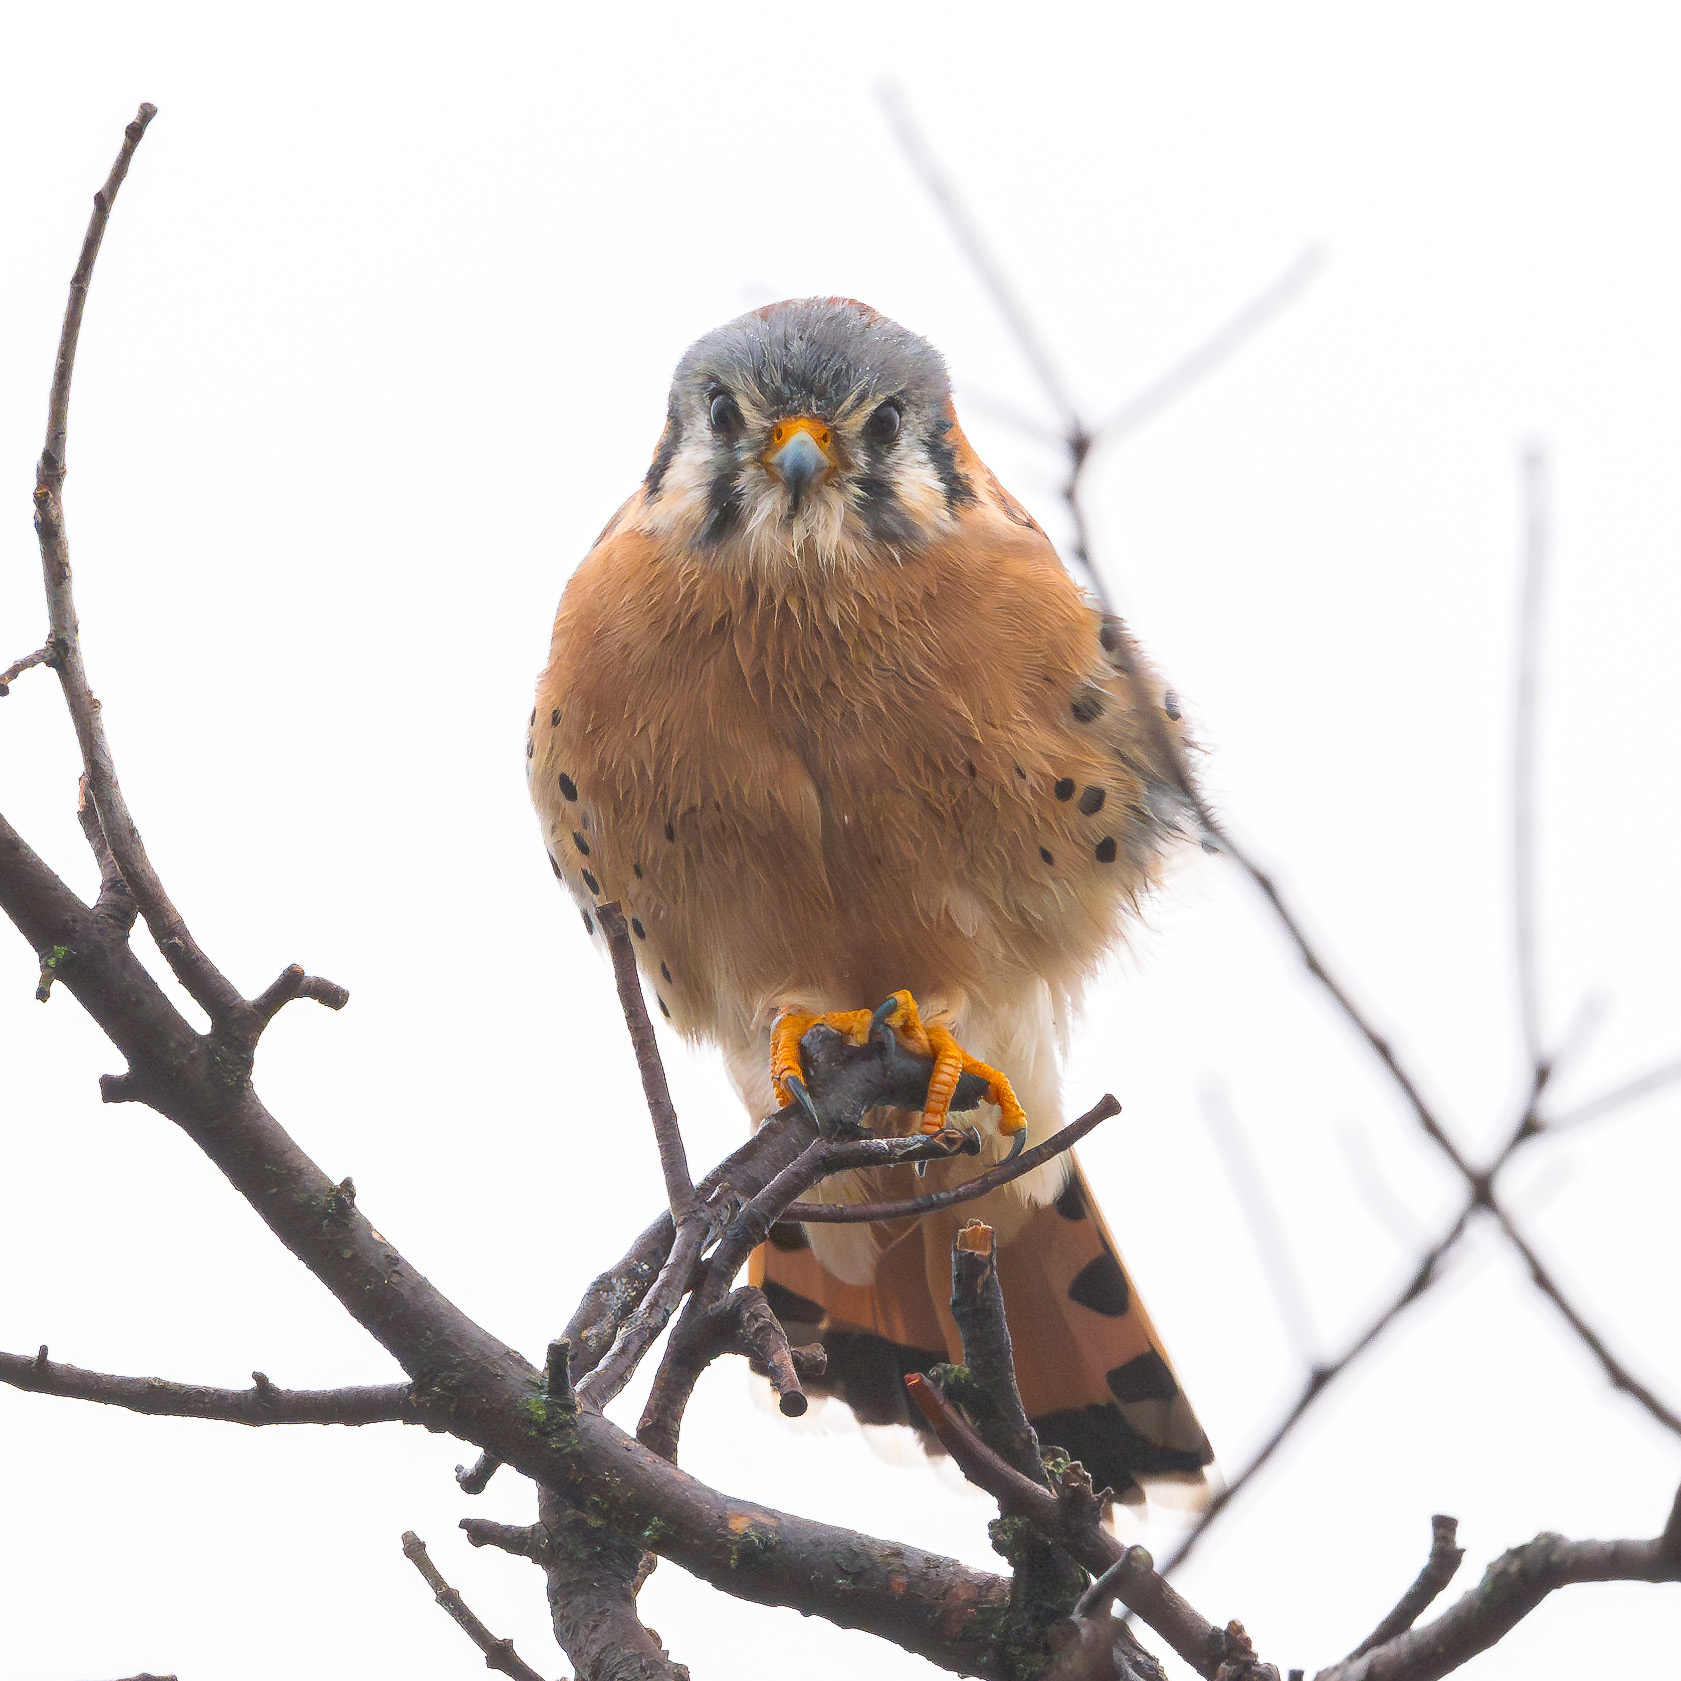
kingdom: Animalia
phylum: Chordata
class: Aves
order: Falconiformes
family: Falconidae
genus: Falco
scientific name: Falco sparverius
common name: American kestrel
